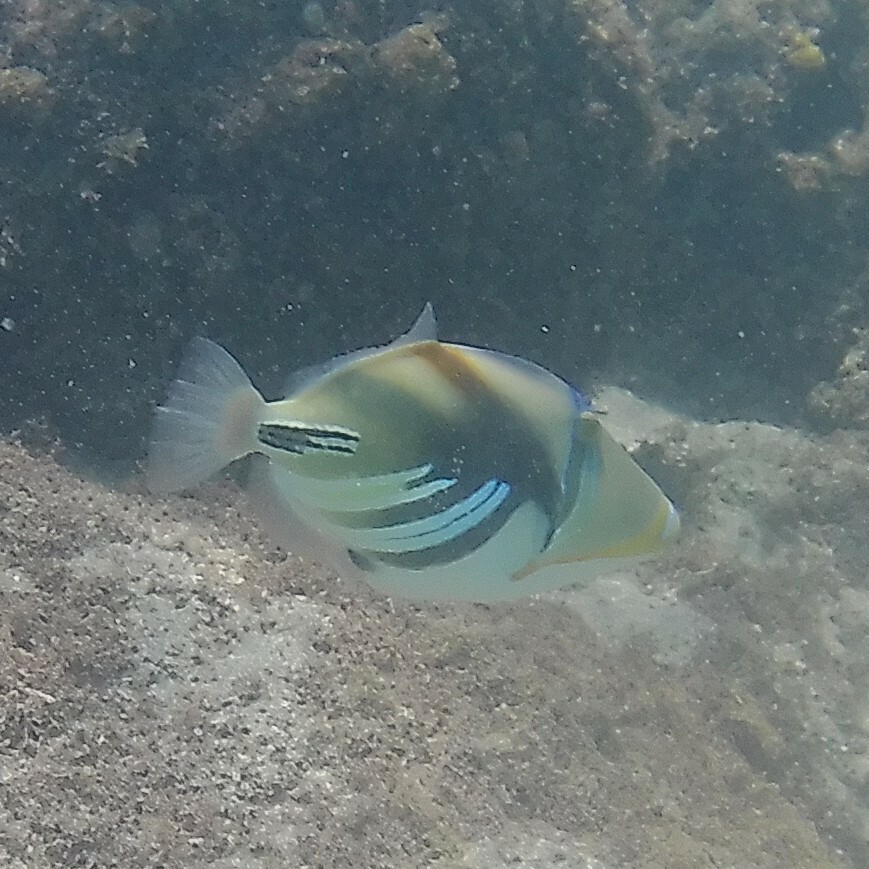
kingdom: Animalia
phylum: Chordata
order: Tetraodontiformes
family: Balistidae
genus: Rhinecanthus
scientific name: Rhinecanthus aculeatus
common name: White-banded triggerfish
